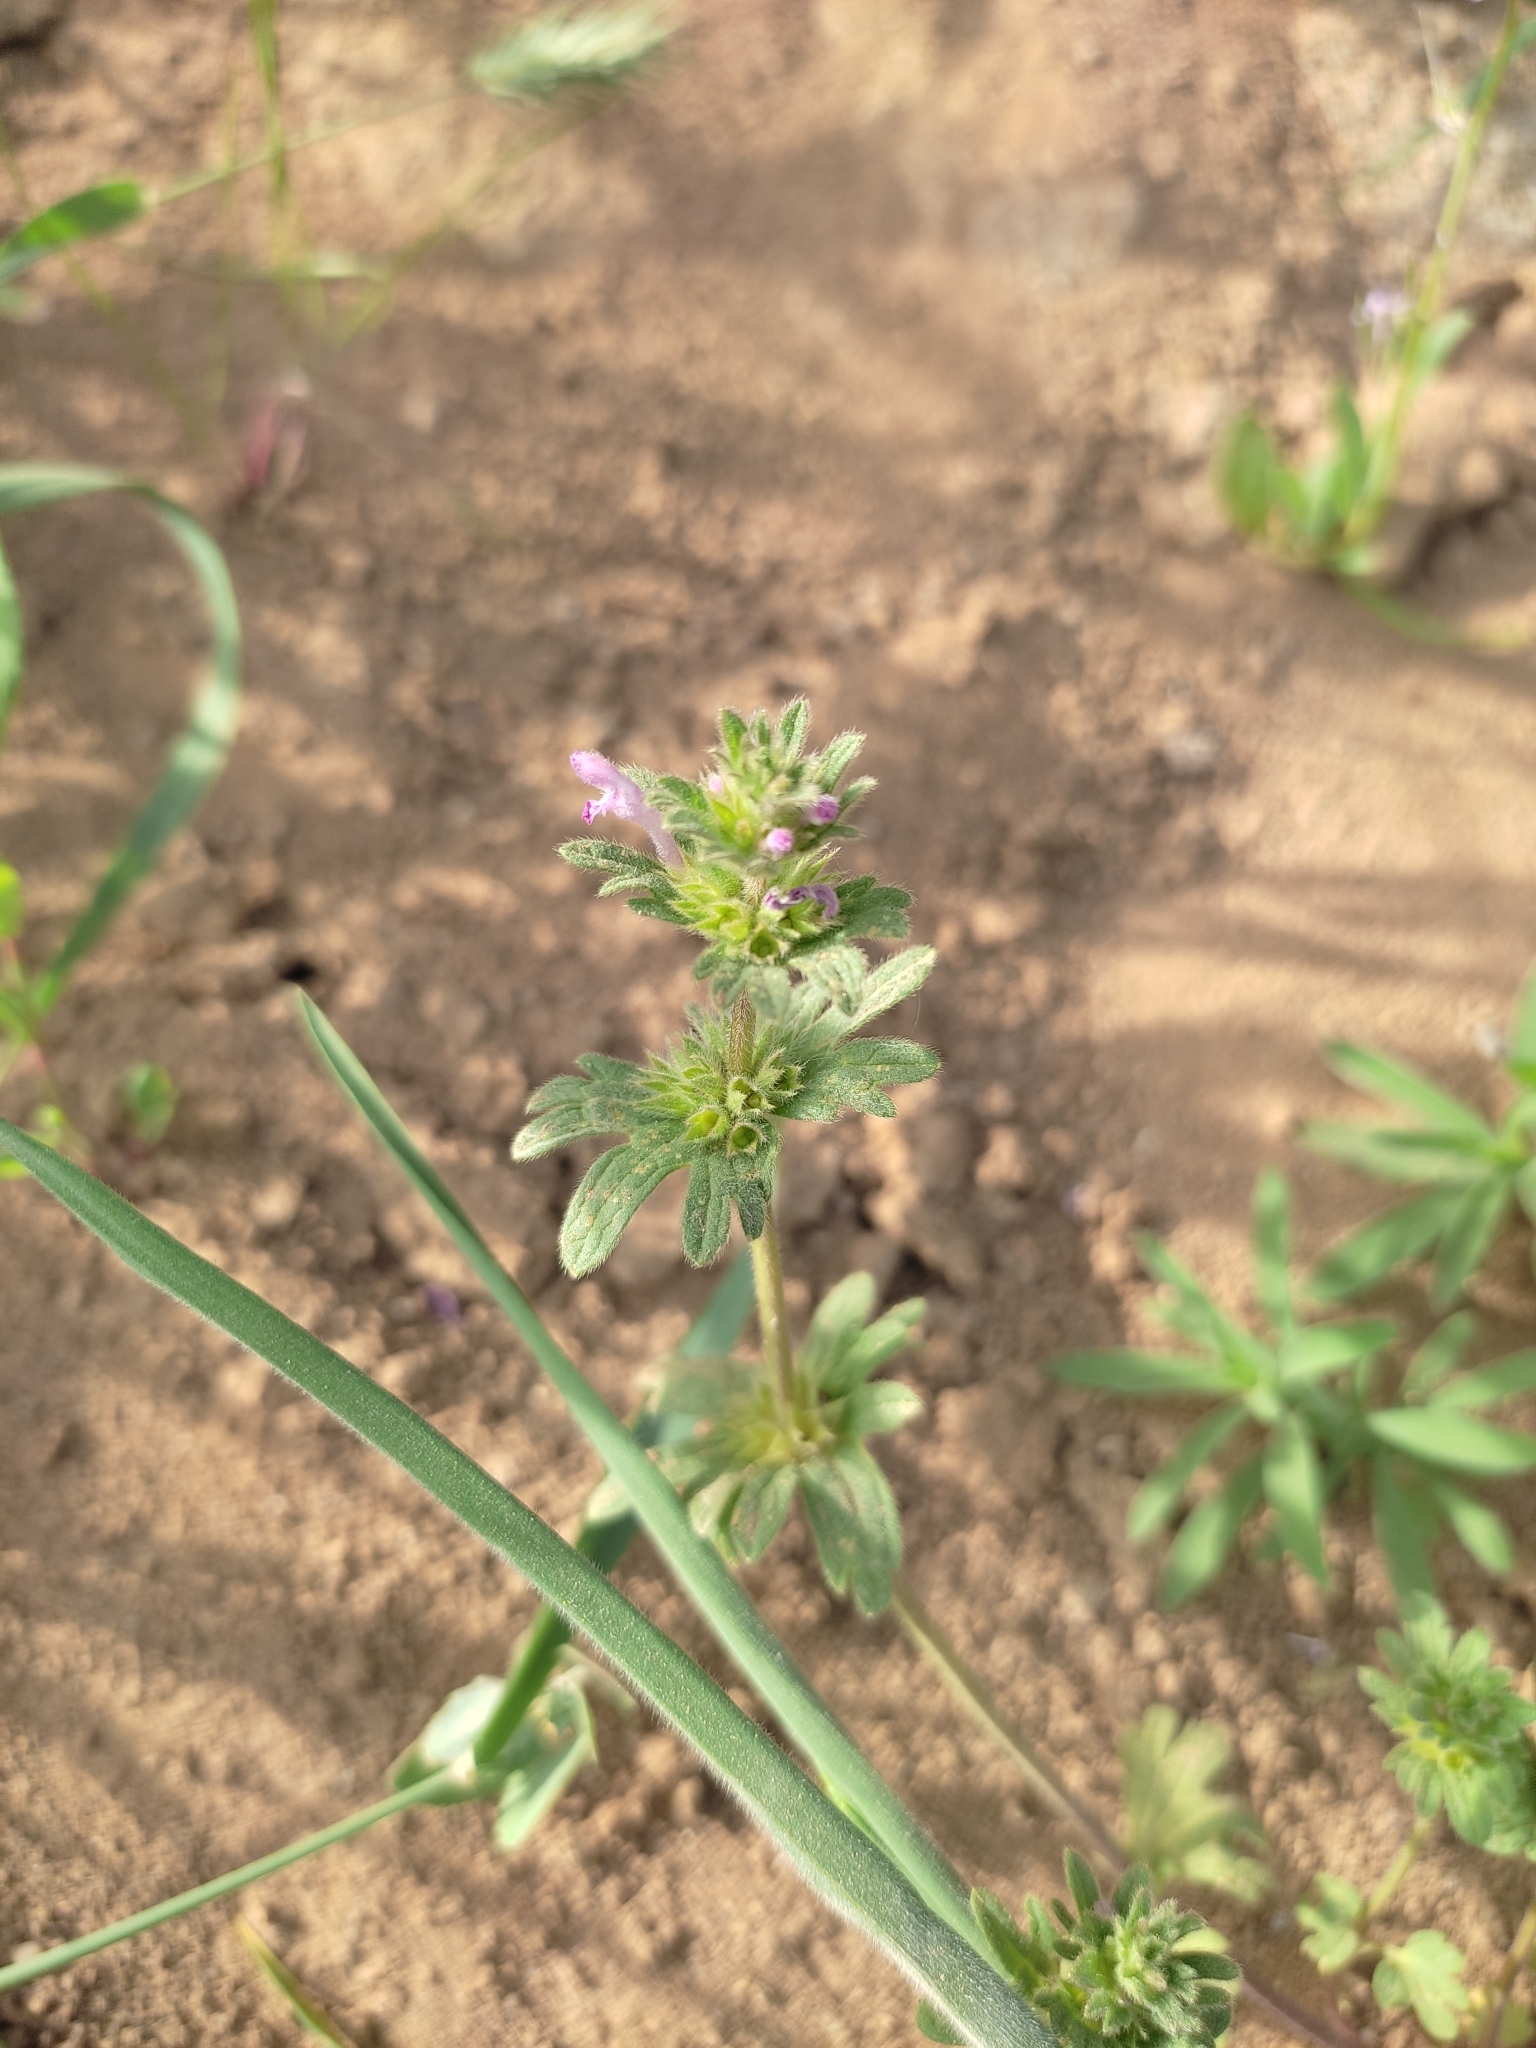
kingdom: Plantae
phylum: Tracheophyta
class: Magnoliopsida
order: Lamiales
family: Lamiaceae
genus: Lamium
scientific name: Lamium amplexicaule
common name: Henbit dead-nettle
